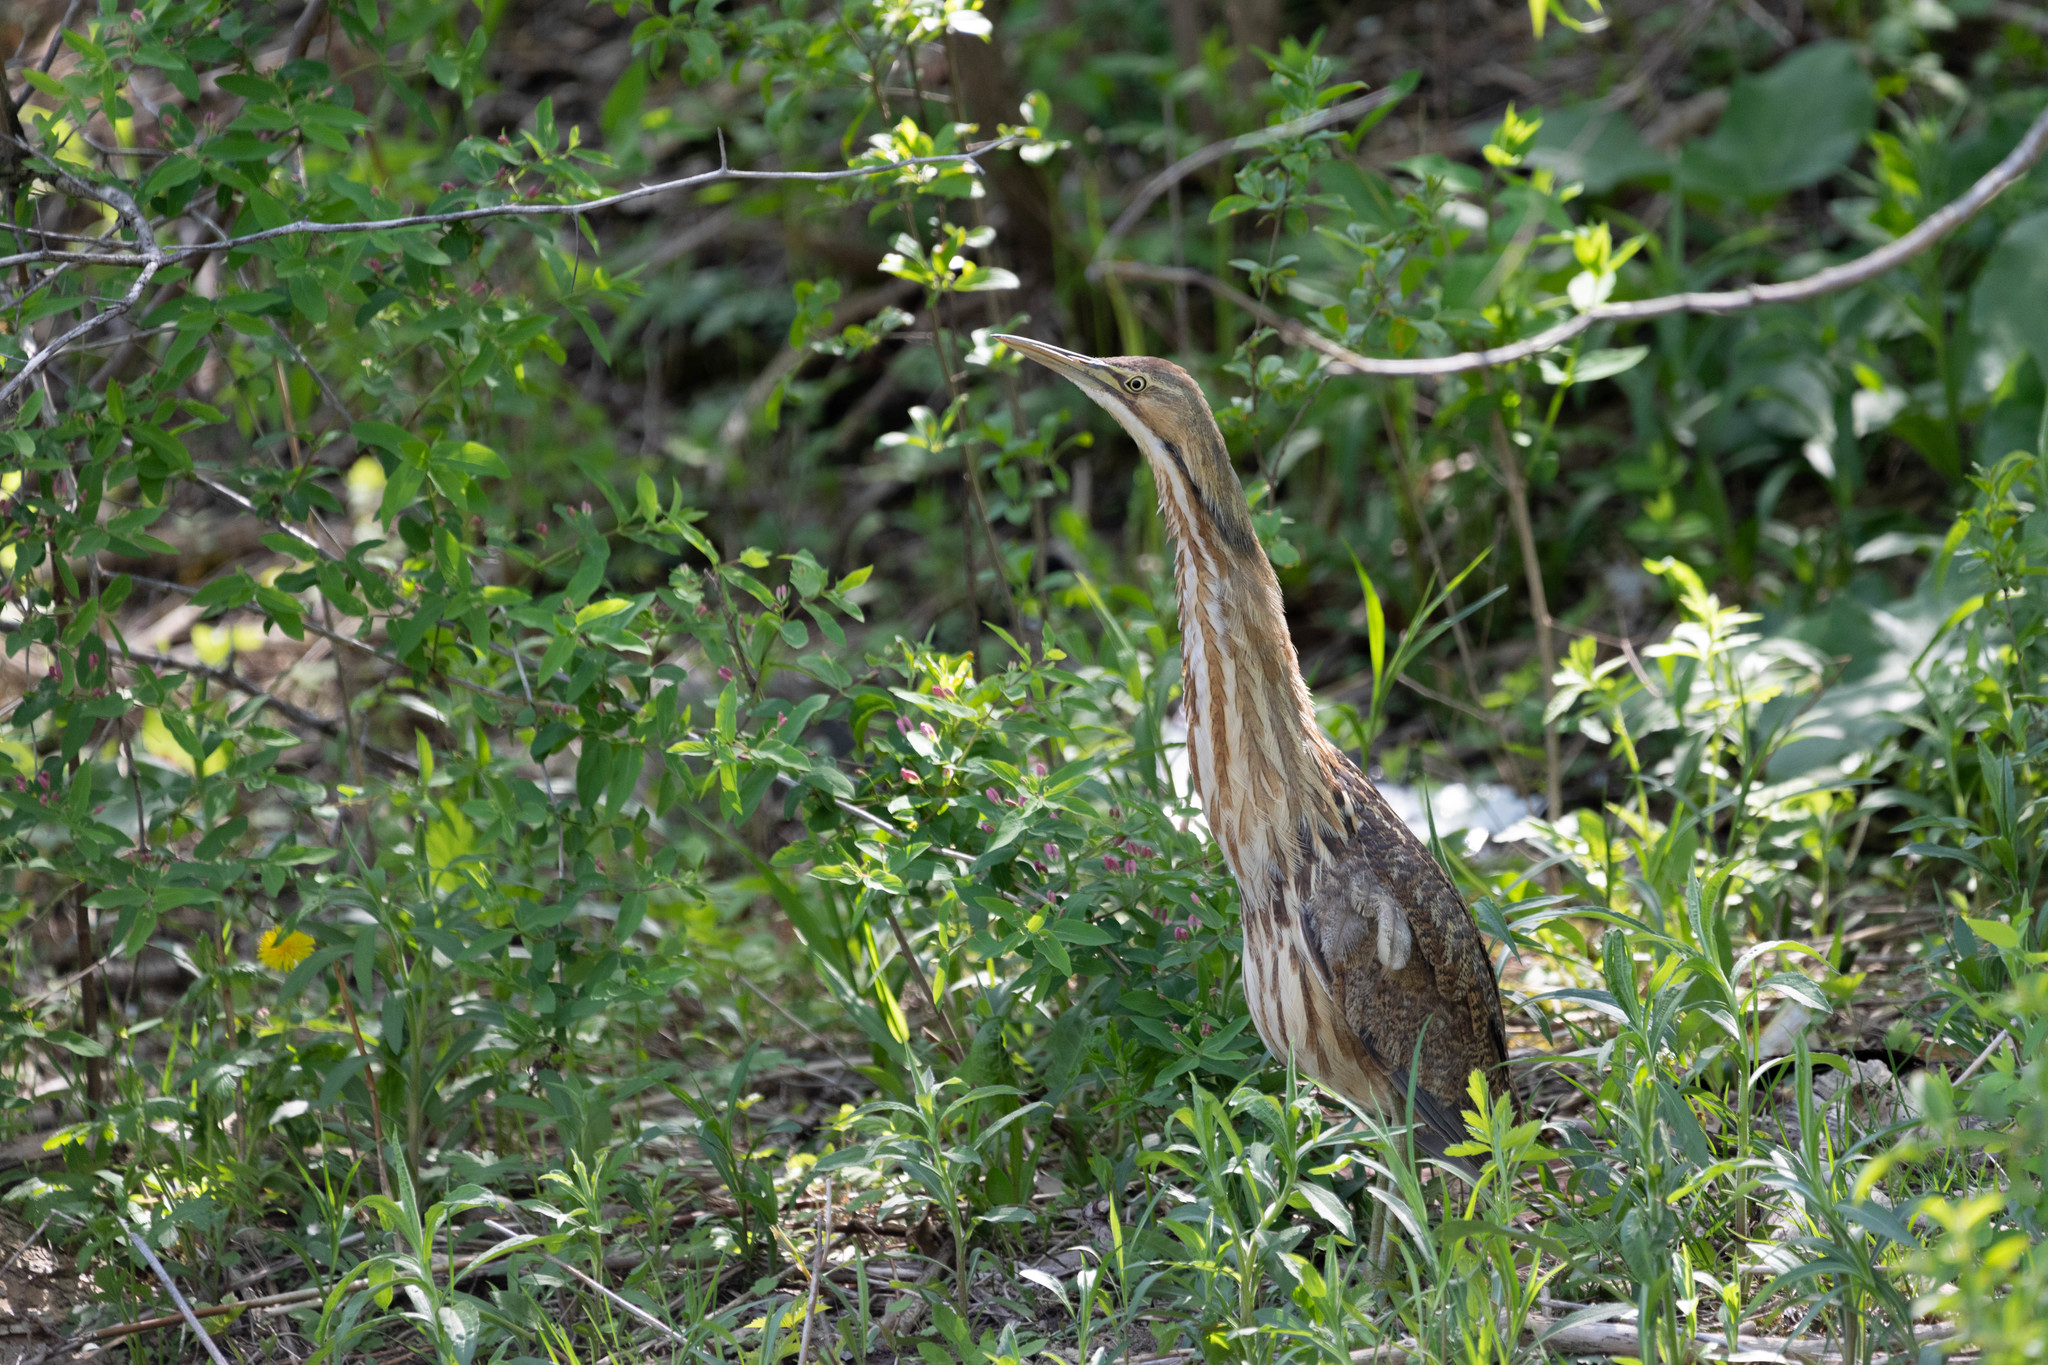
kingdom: Animalia
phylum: Chordata
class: Aves
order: Pelecaniformes
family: Ardeidae
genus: Botaurus
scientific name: Botaurus lentiginosus
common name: American bittern
